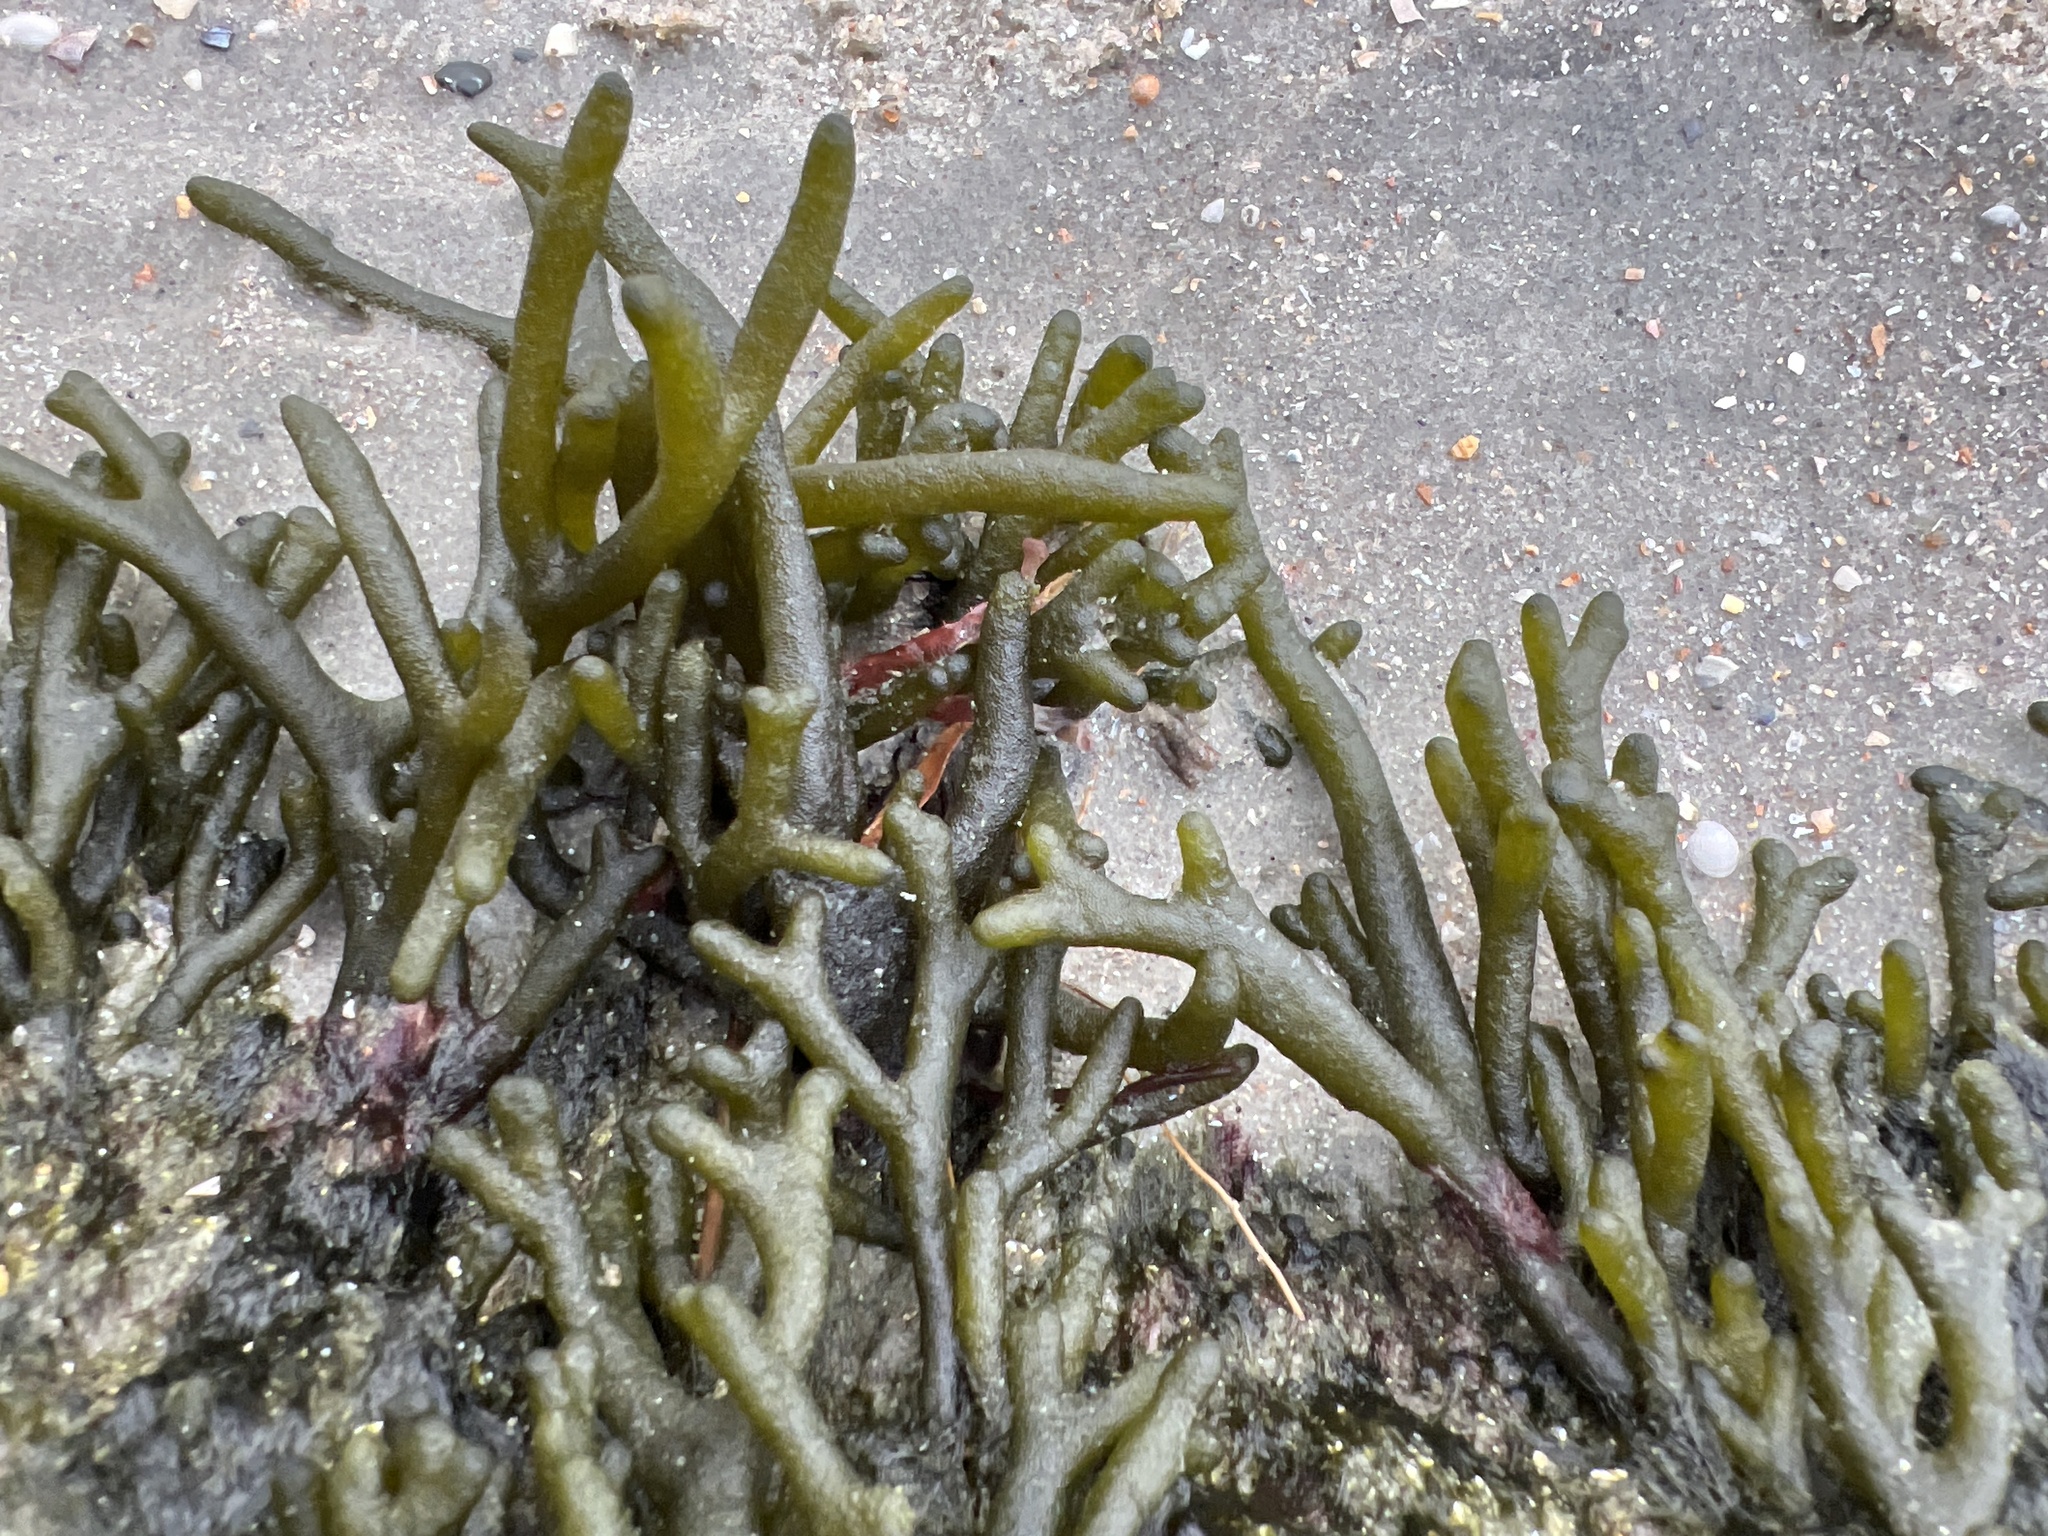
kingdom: Plantae
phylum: Chlorophyta
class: Ulvophyceae
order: Bryopsidales
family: Codiaceae
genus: Codium
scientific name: Codium fragile
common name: Dead man's fingers
